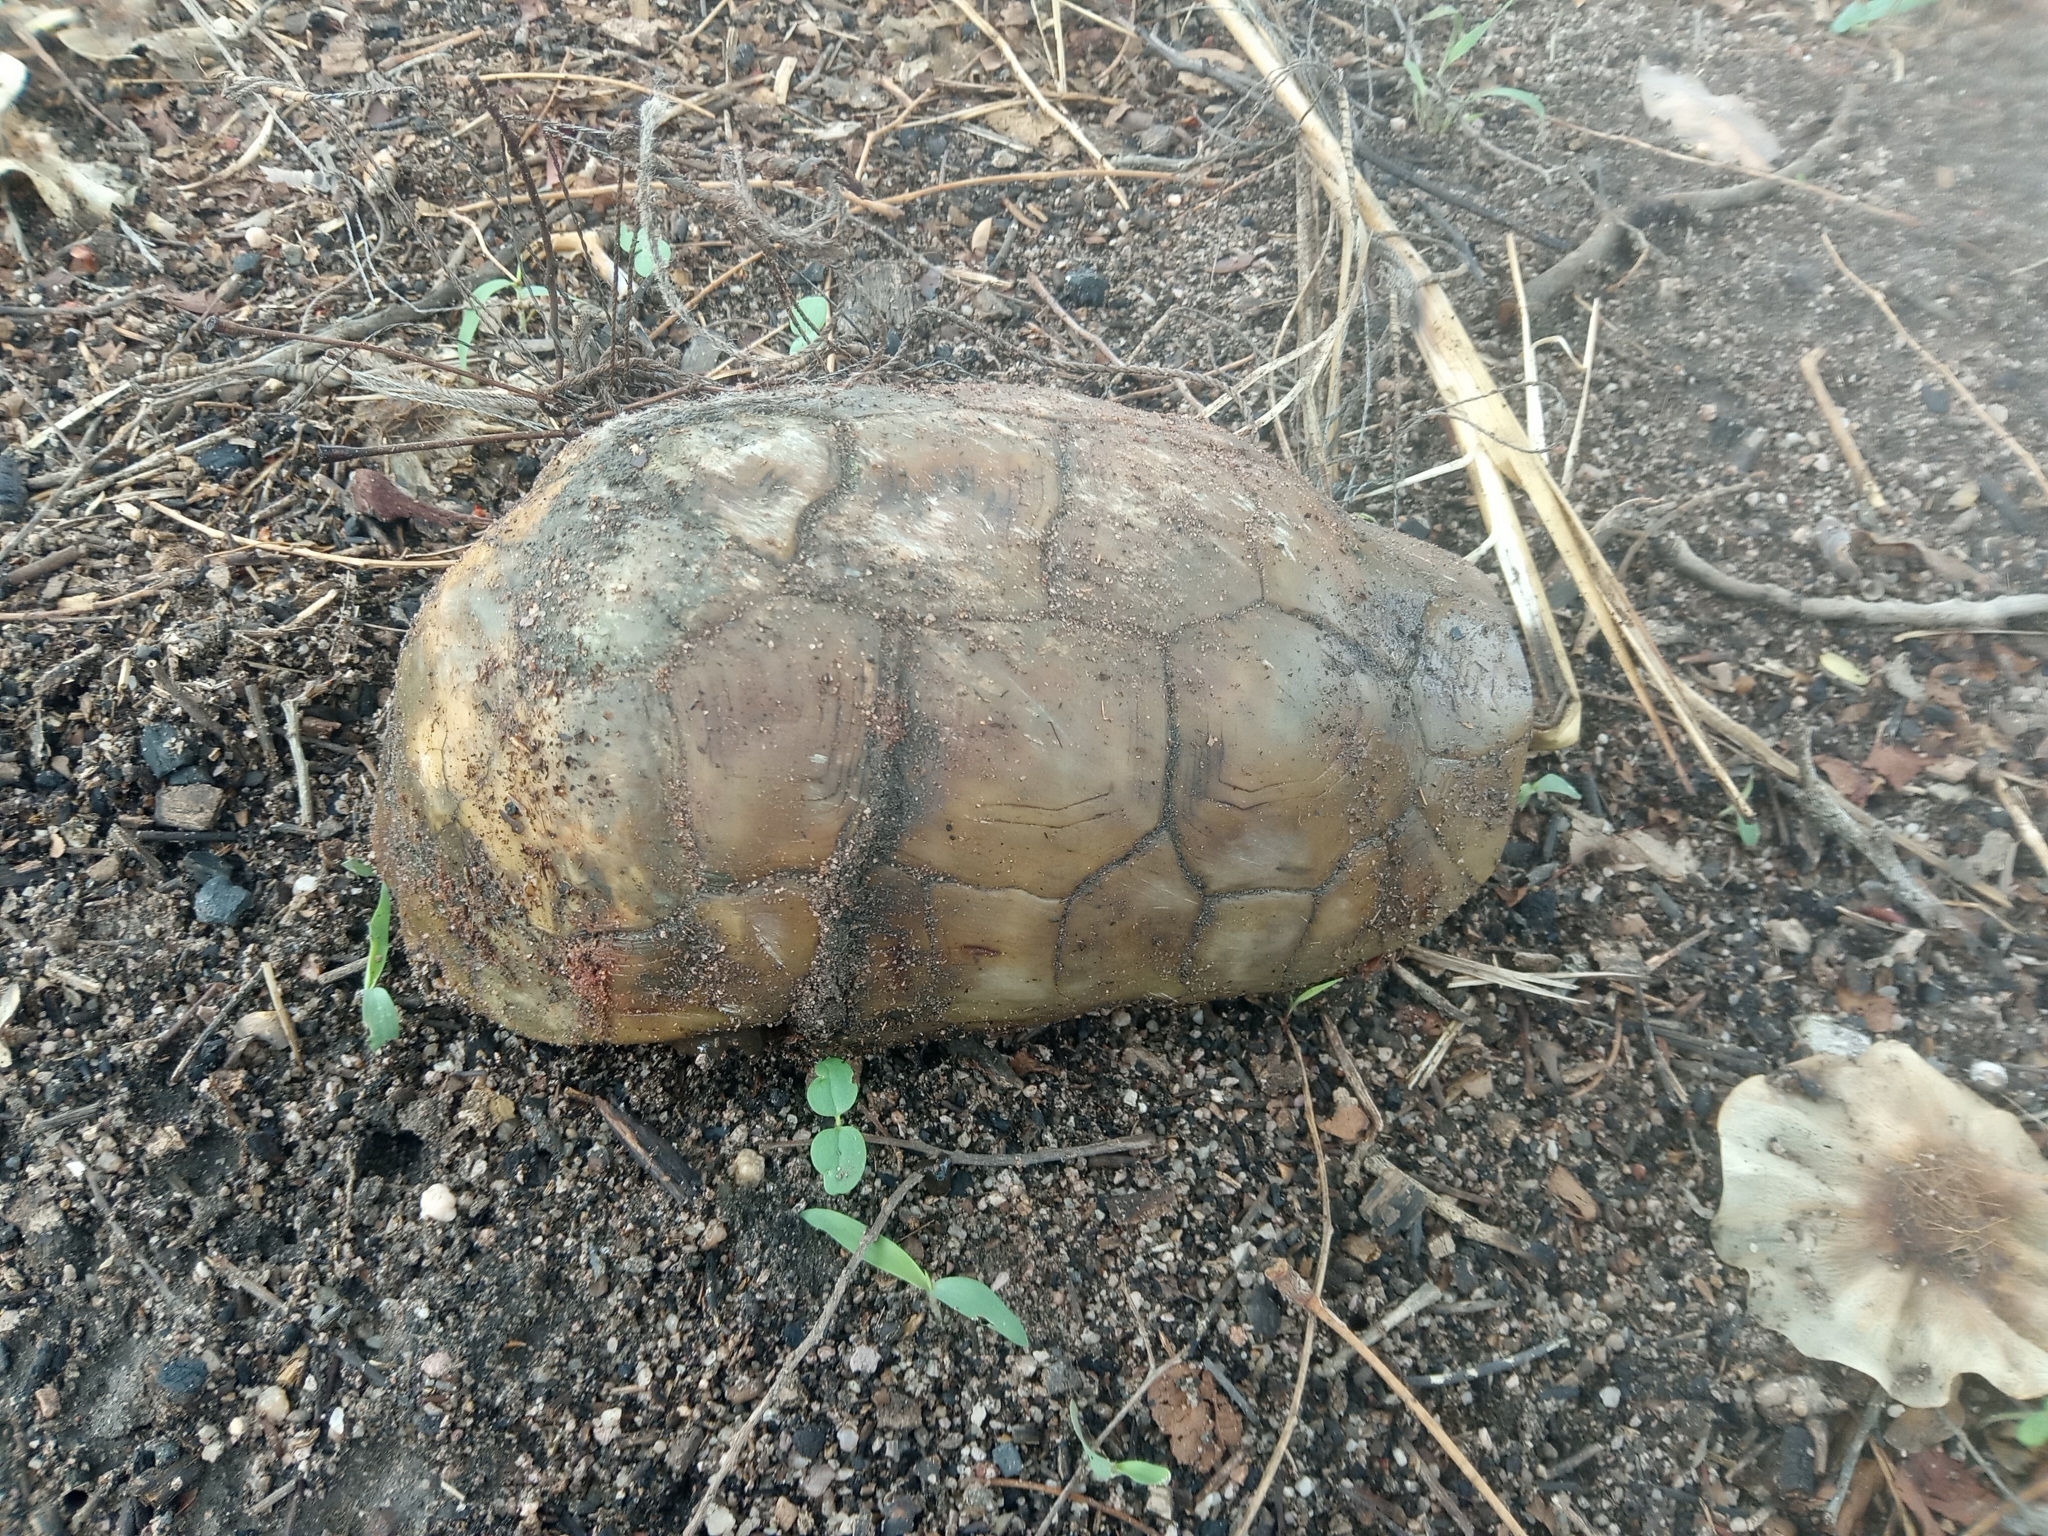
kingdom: Animalia
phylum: Chordata
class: Testudines
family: Testudinidae
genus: Kinixys
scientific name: Kinixys nogueyi
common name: Western hinge-back tortoise
